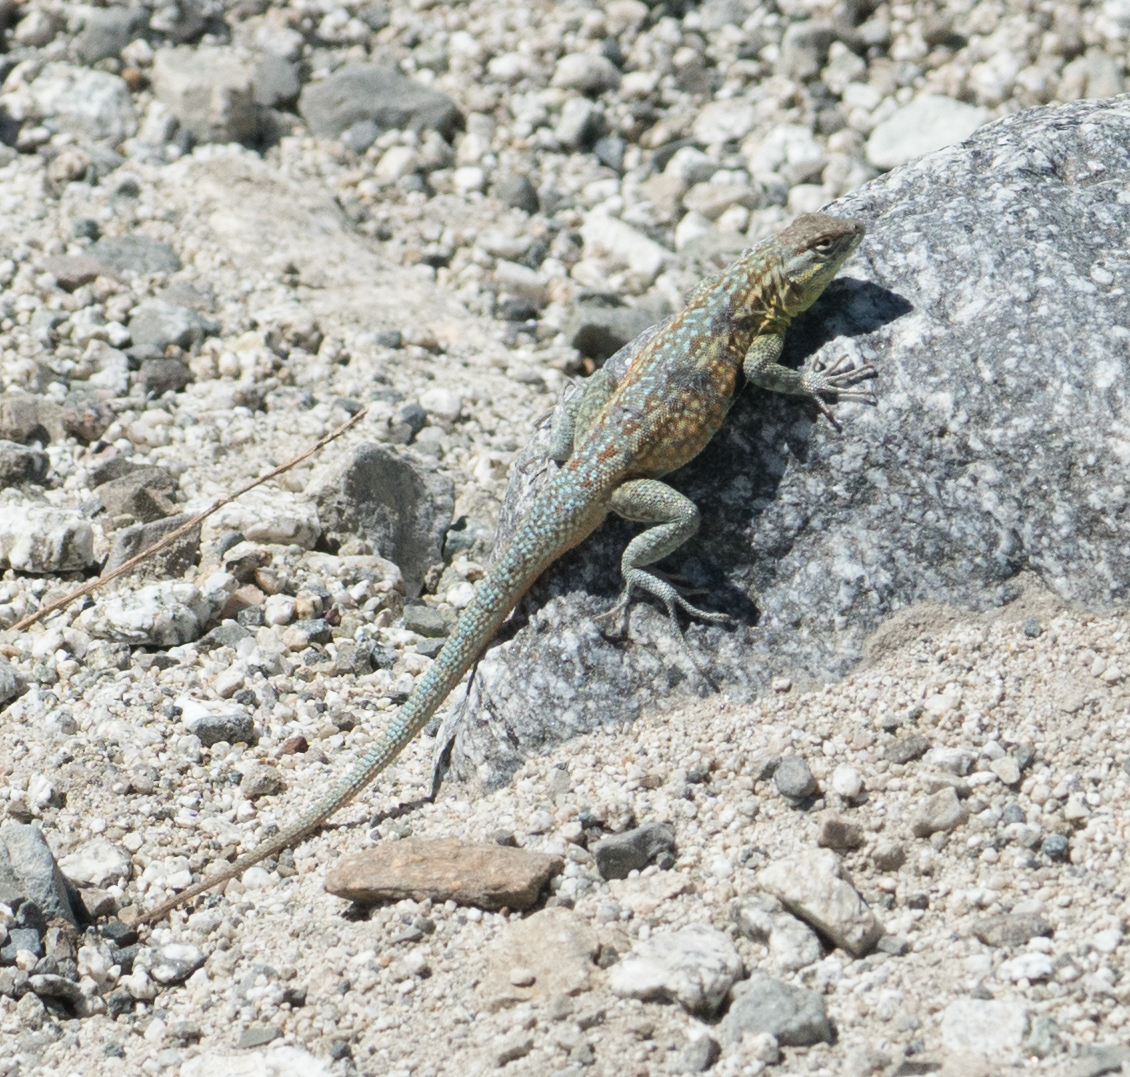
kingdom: Animalia
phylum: Chordata
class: Squamata
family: Phrynosomatidae
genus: Uta
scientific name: Uta stansburiana
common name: Side-blotched lizard
